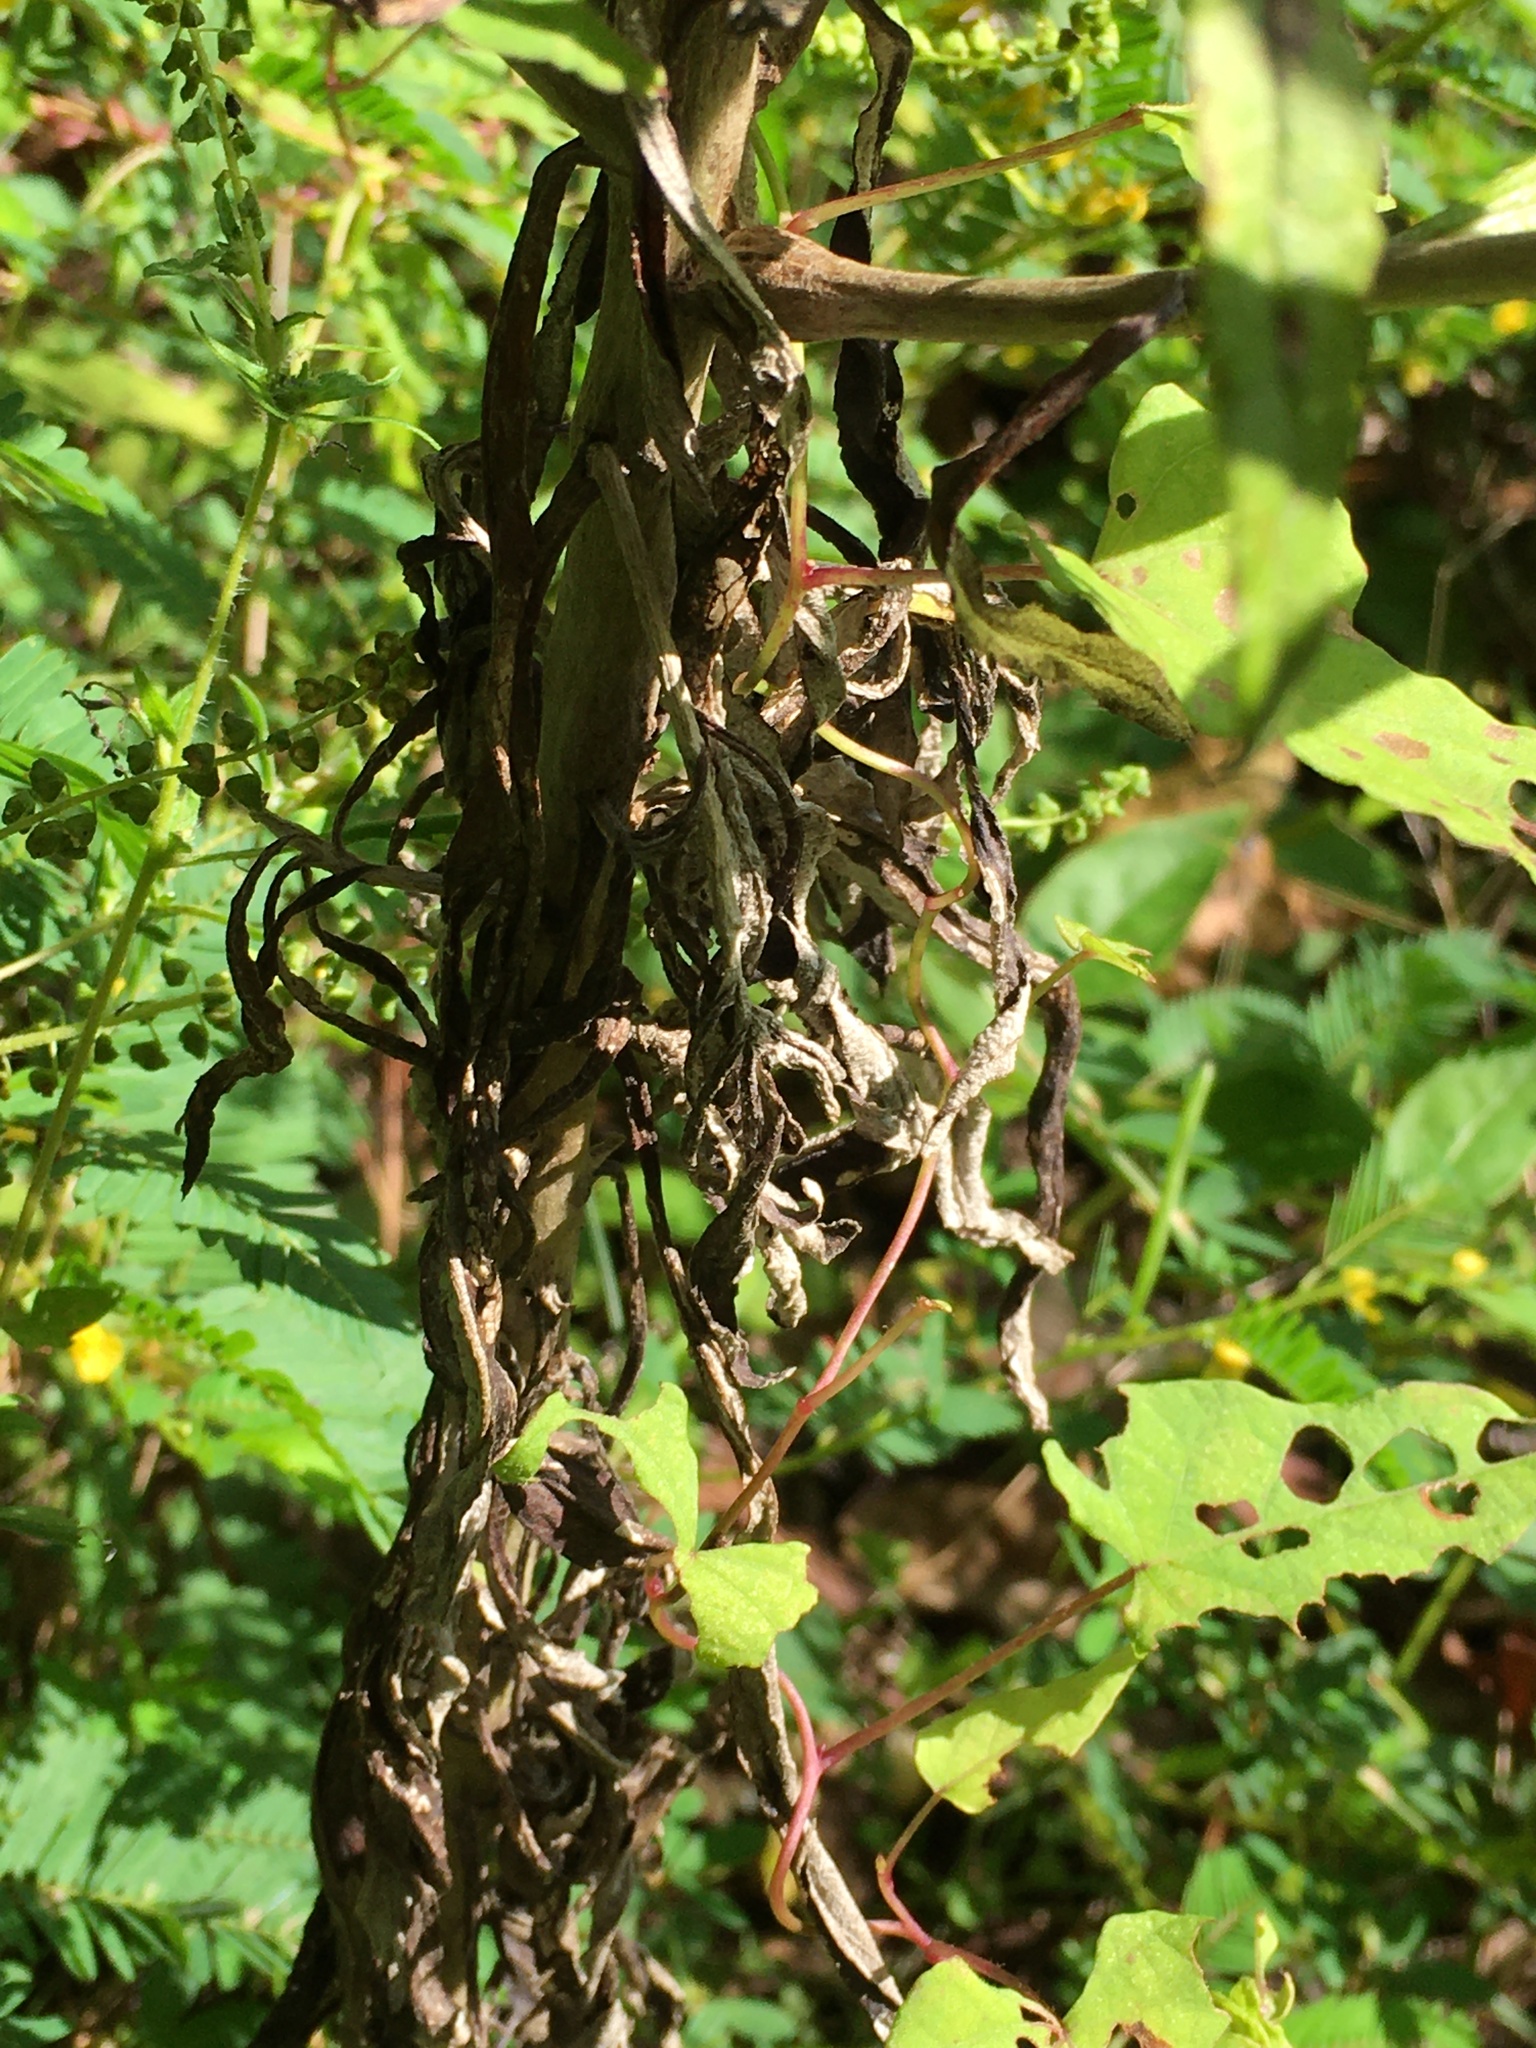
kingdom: Plantae
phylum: Tracheophyta
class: Magnoliopsida
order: Asterales
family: Asteraceae
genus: Pseudognaphalium
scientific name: Pseudognaphalium obtusifolium
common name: Eastern rabbit-tobacco
